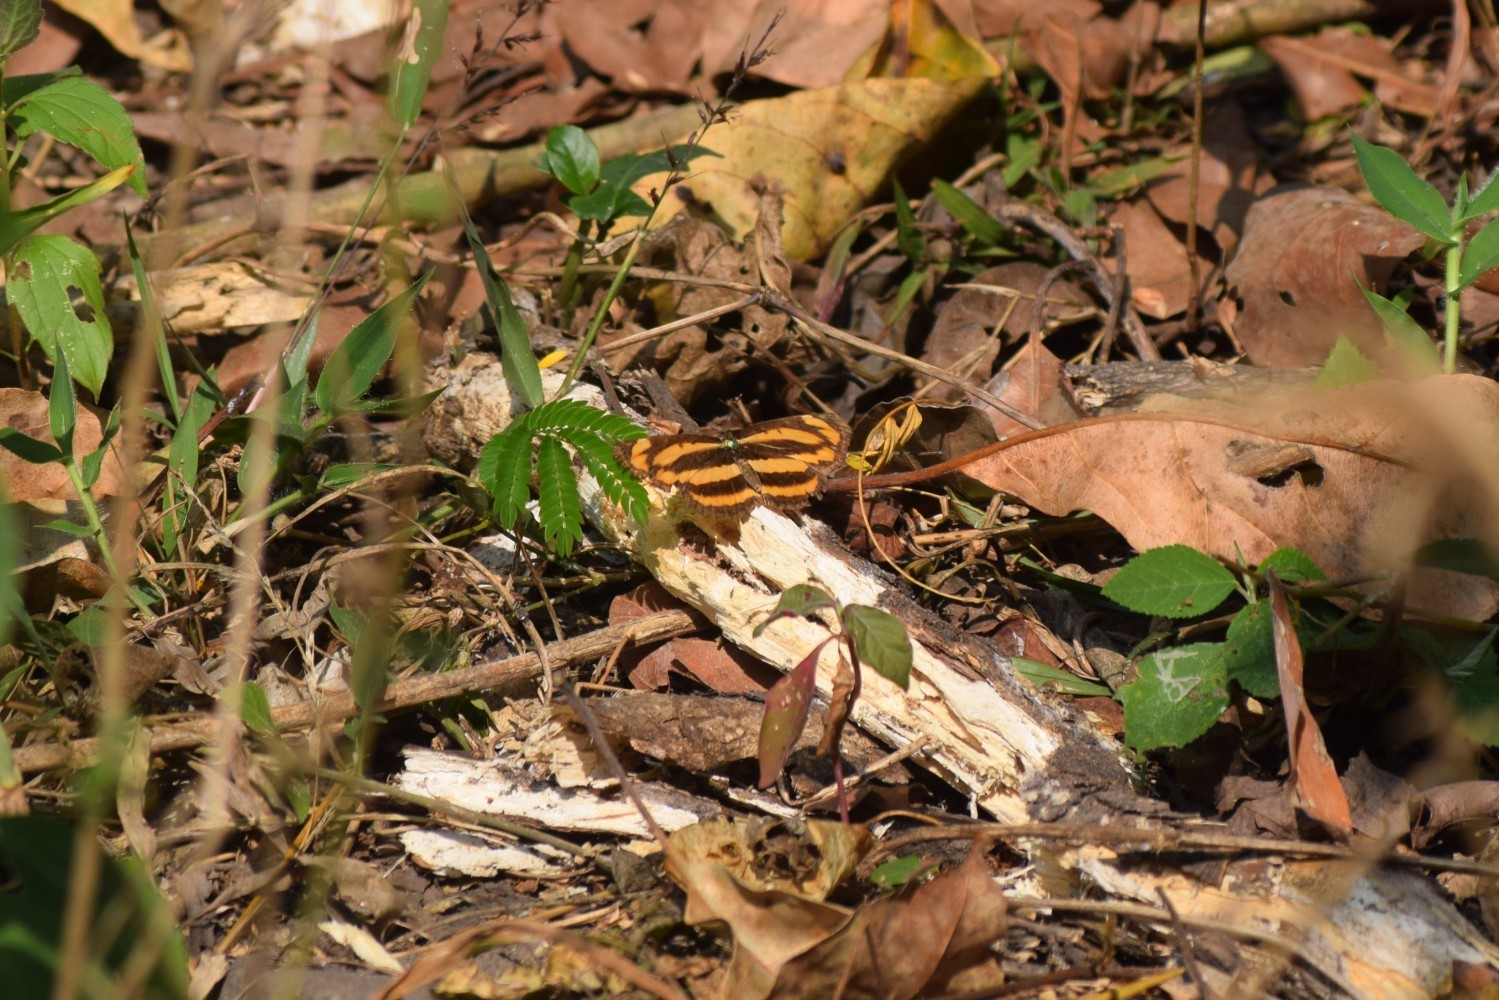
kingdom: Animalia
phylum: Arthropoda
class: Insecta
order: Lepidoptera
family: Nymphalidae
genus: Pantoporia
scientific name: Pantoporia hordonia
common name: Common lascar
